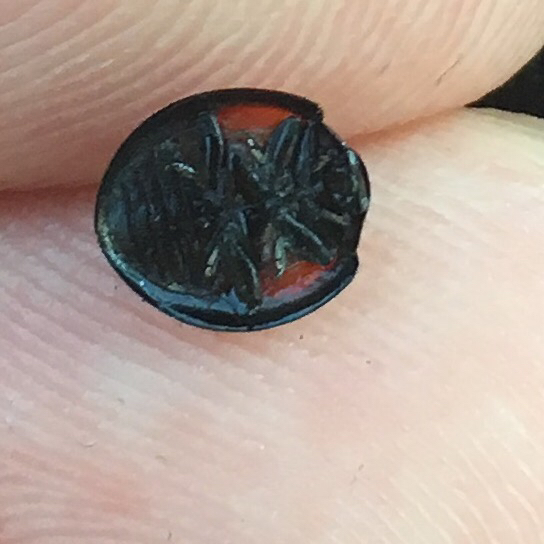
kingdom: Animalia
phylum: Arthropoda
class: Insecta
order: Coleoptera
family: Coccinellidae
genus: Axion
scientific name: Axion plagiatum
